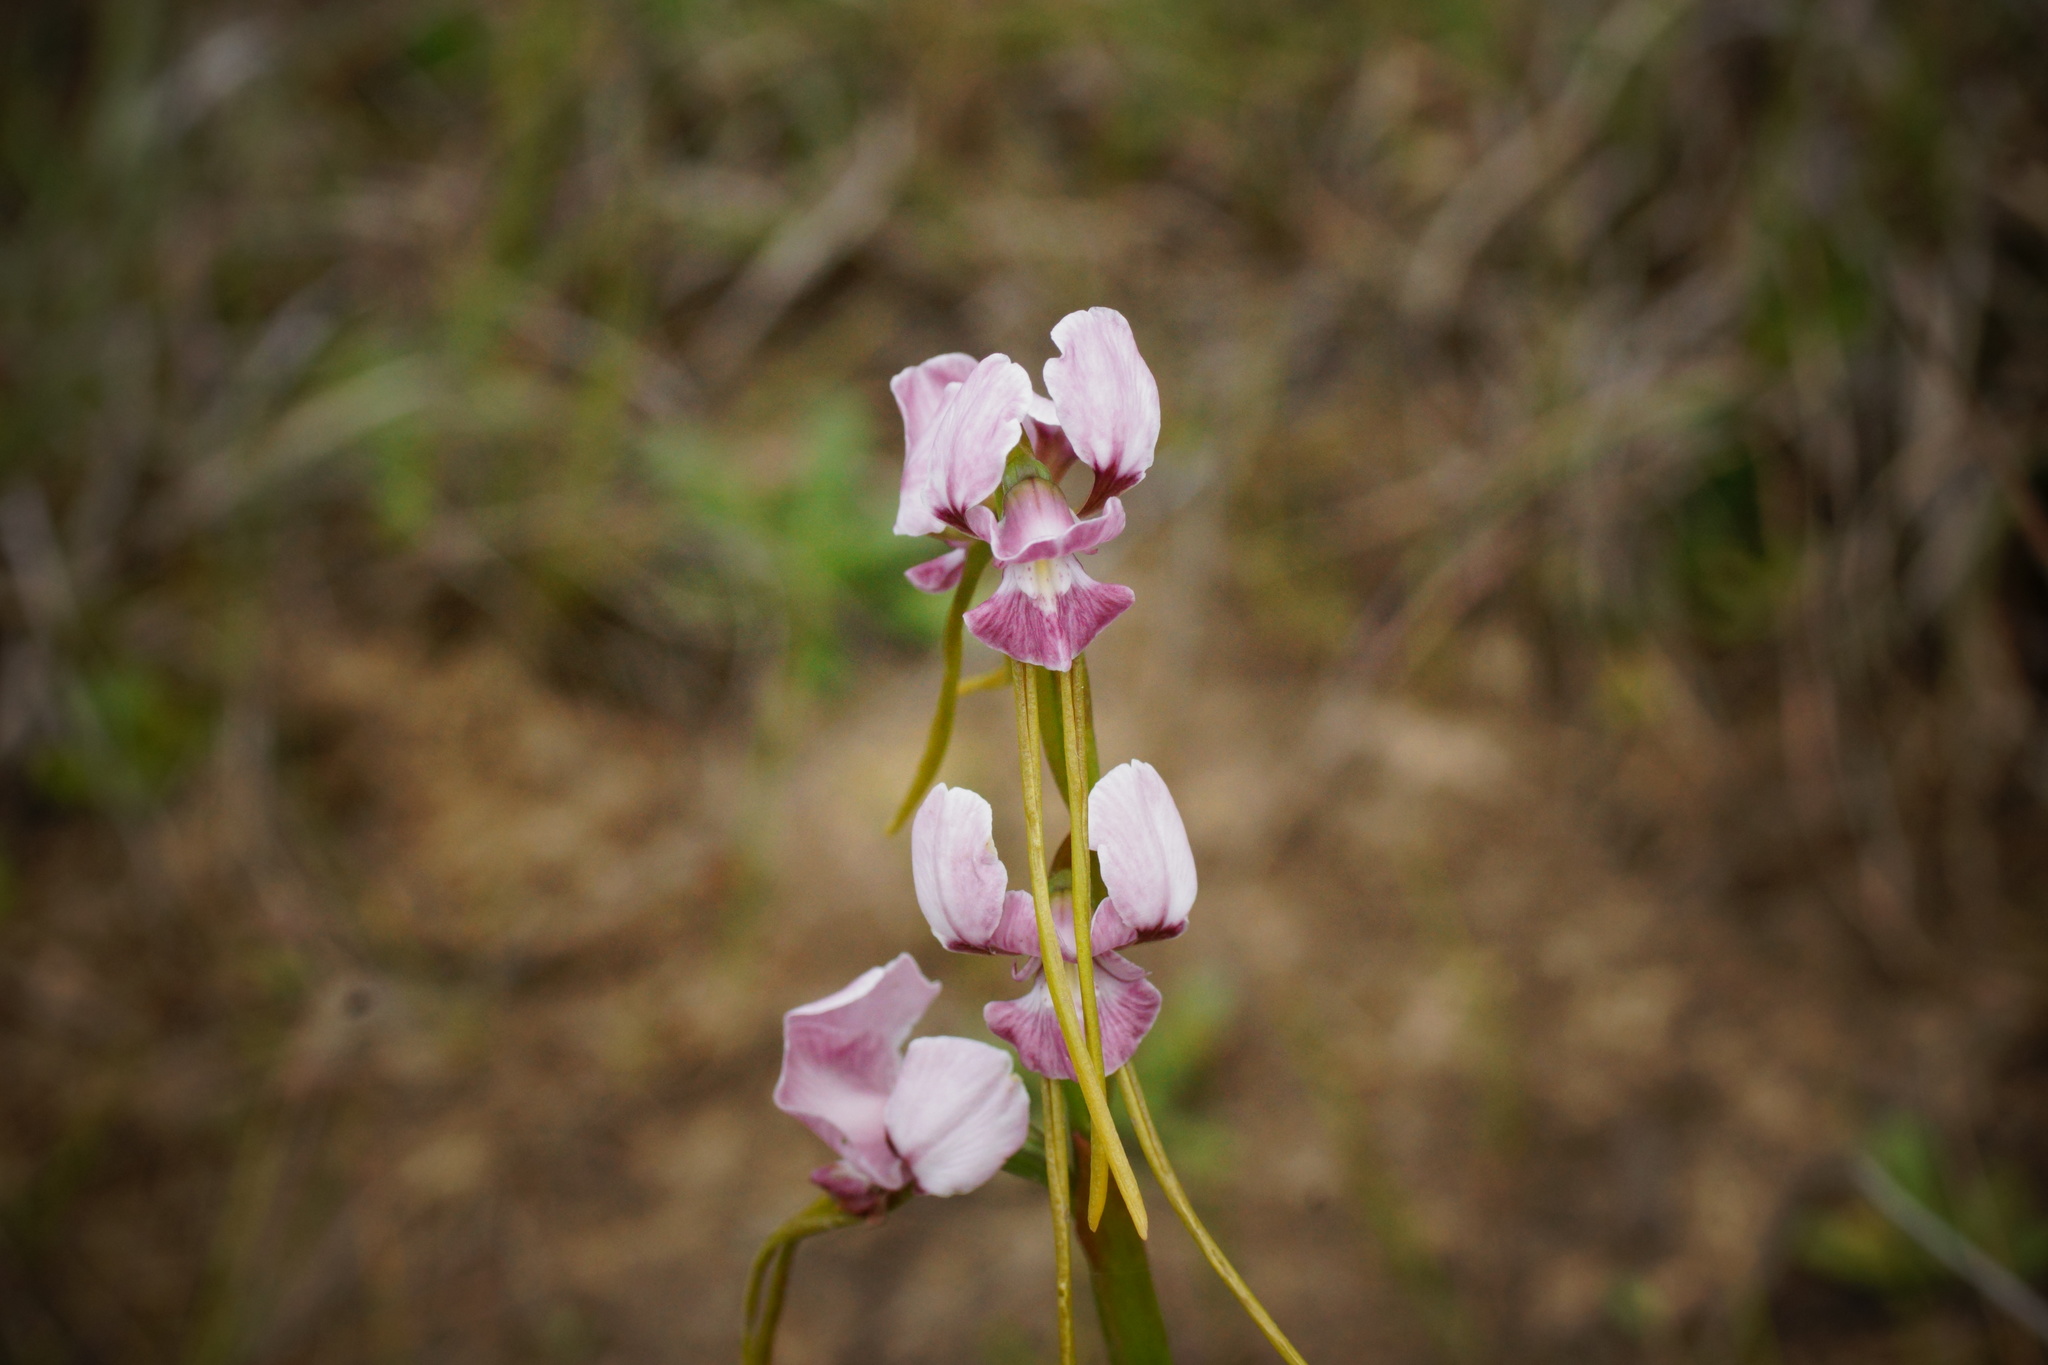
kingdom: Plantae
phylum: Tracheophyta
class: Liliopsida
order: Asparagales
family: Orchidaceae
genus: Diuris
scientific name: Diuris punctata
